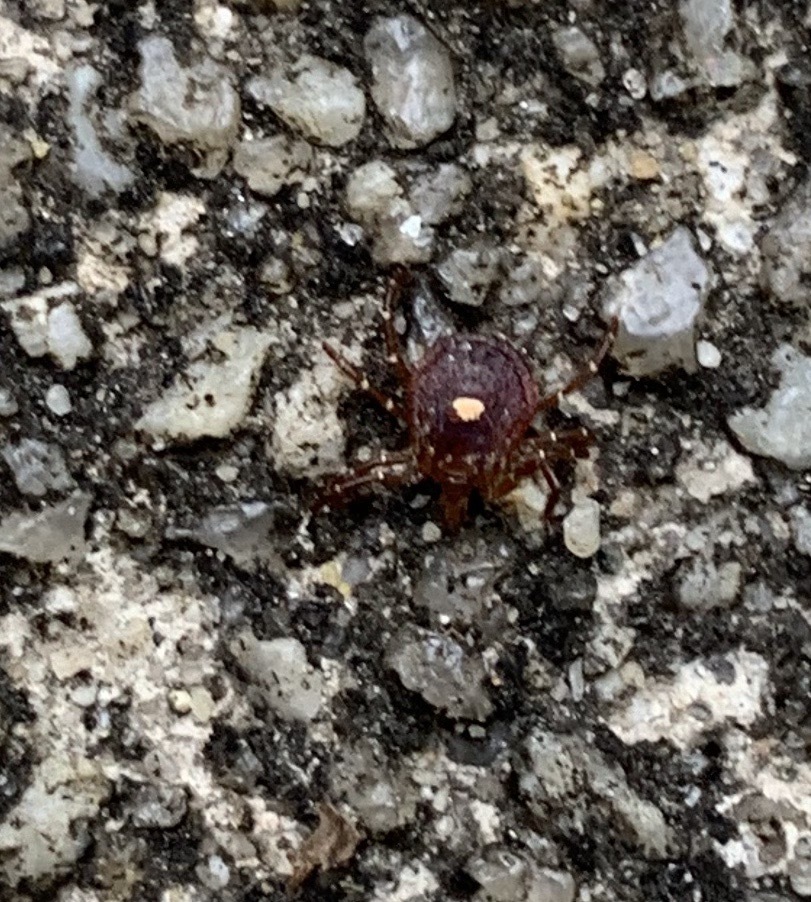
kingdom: Animalia
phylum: Arthropoda
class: Arachnida
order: Ixodida
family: Ixodidae
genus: Amblyomma
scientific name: Amblyomma americanum
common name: Lone star tick
